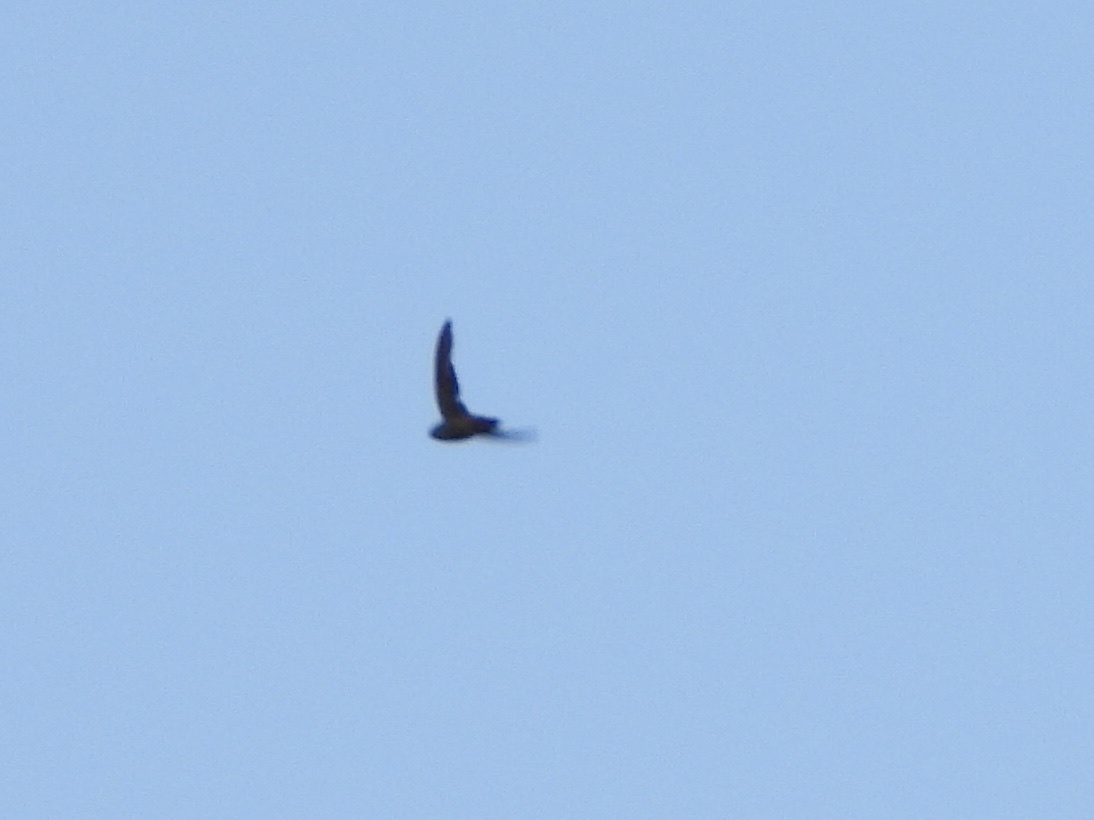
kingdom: Animalia
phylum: Chordata
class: Aves
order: Apodiformes
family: Apodidae
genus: Chaetura
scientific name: Chaetura vauxi
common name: Vaux's swift
